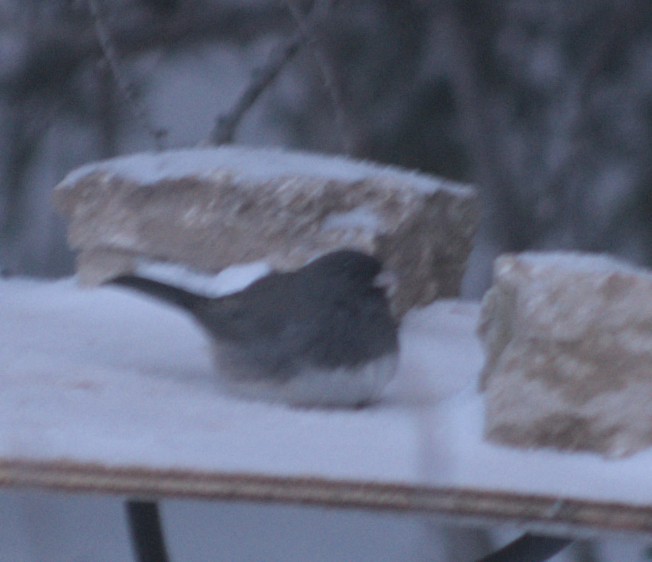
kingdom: Animalia
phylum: Chordata
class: Aves
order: Passeriformes
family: Passerellidae
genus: Junco
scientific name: Junco hyemalis
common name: Dark-eyed junco
